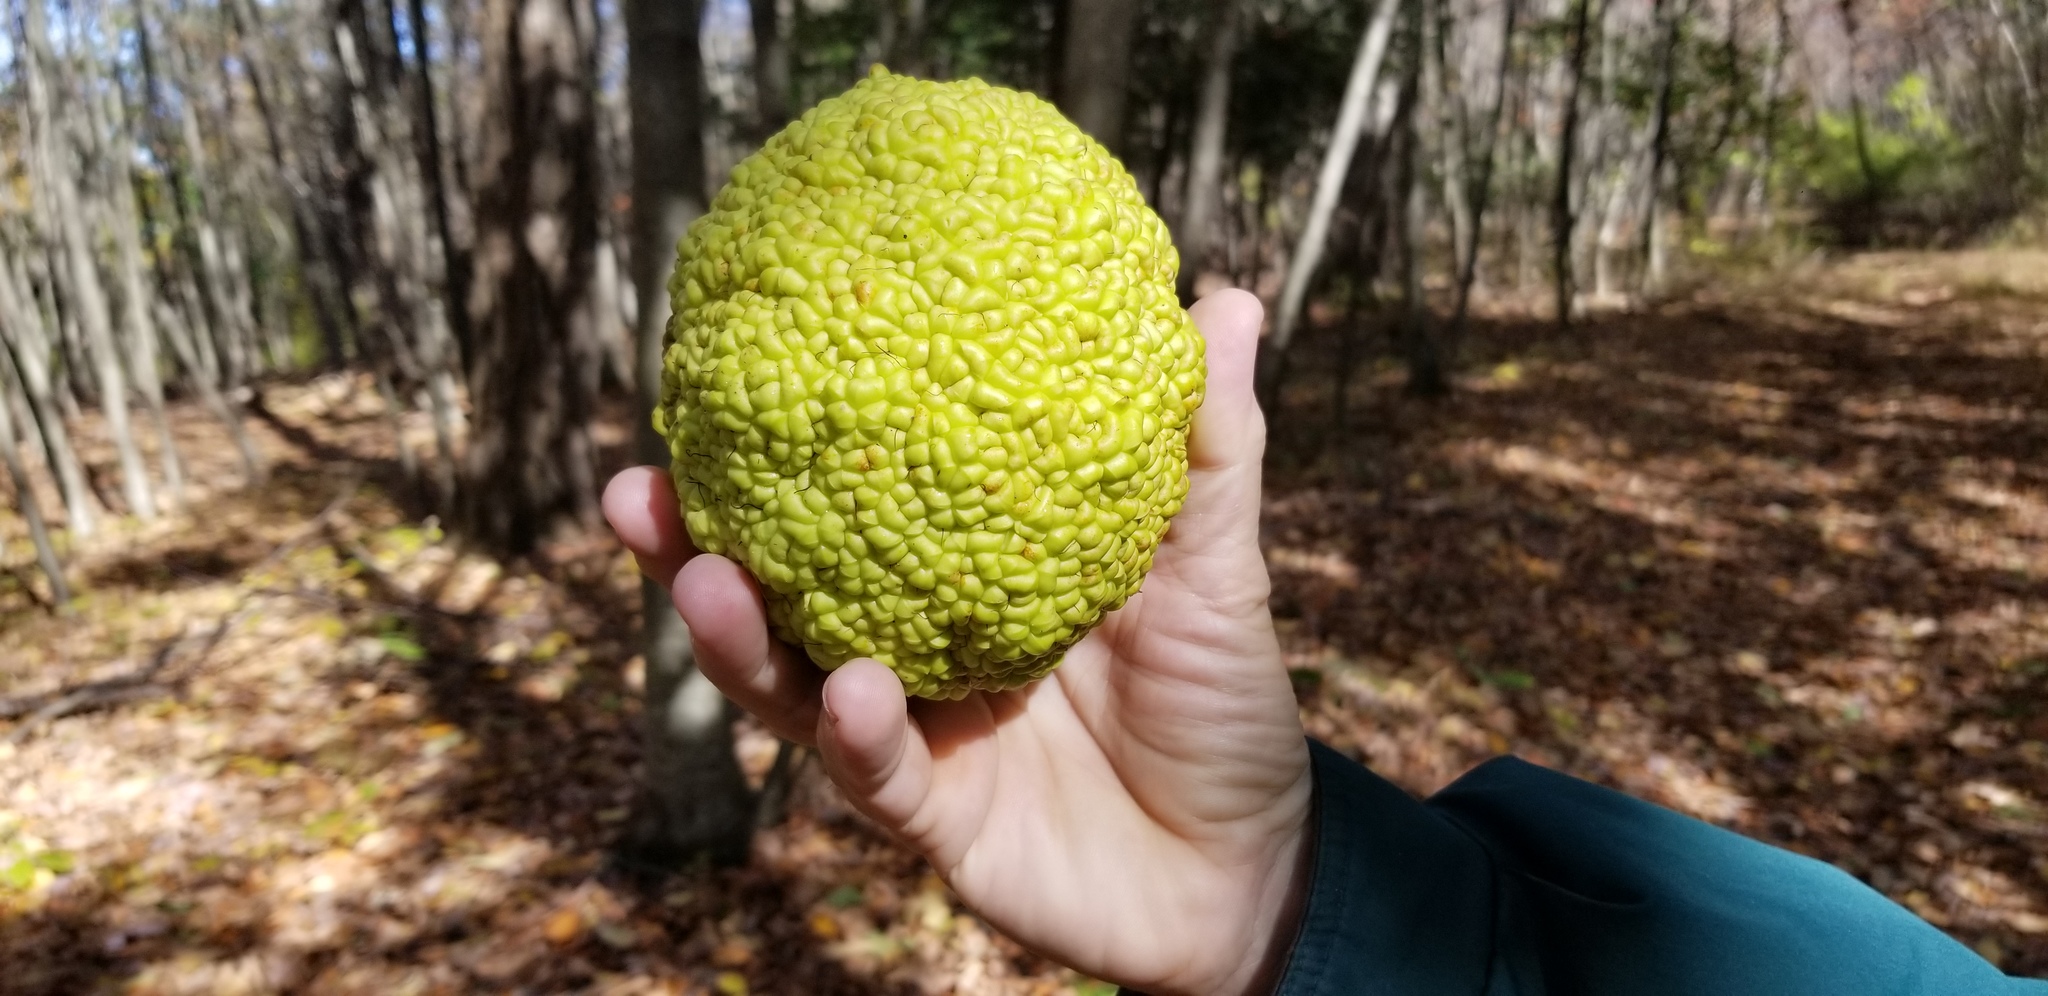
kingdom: Plantae
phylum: Tracheophyta
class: Magnoliopsida
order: Rosales
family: Moraceae
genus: Maclura
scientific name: Maclura pomifera
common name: Osage-orange
